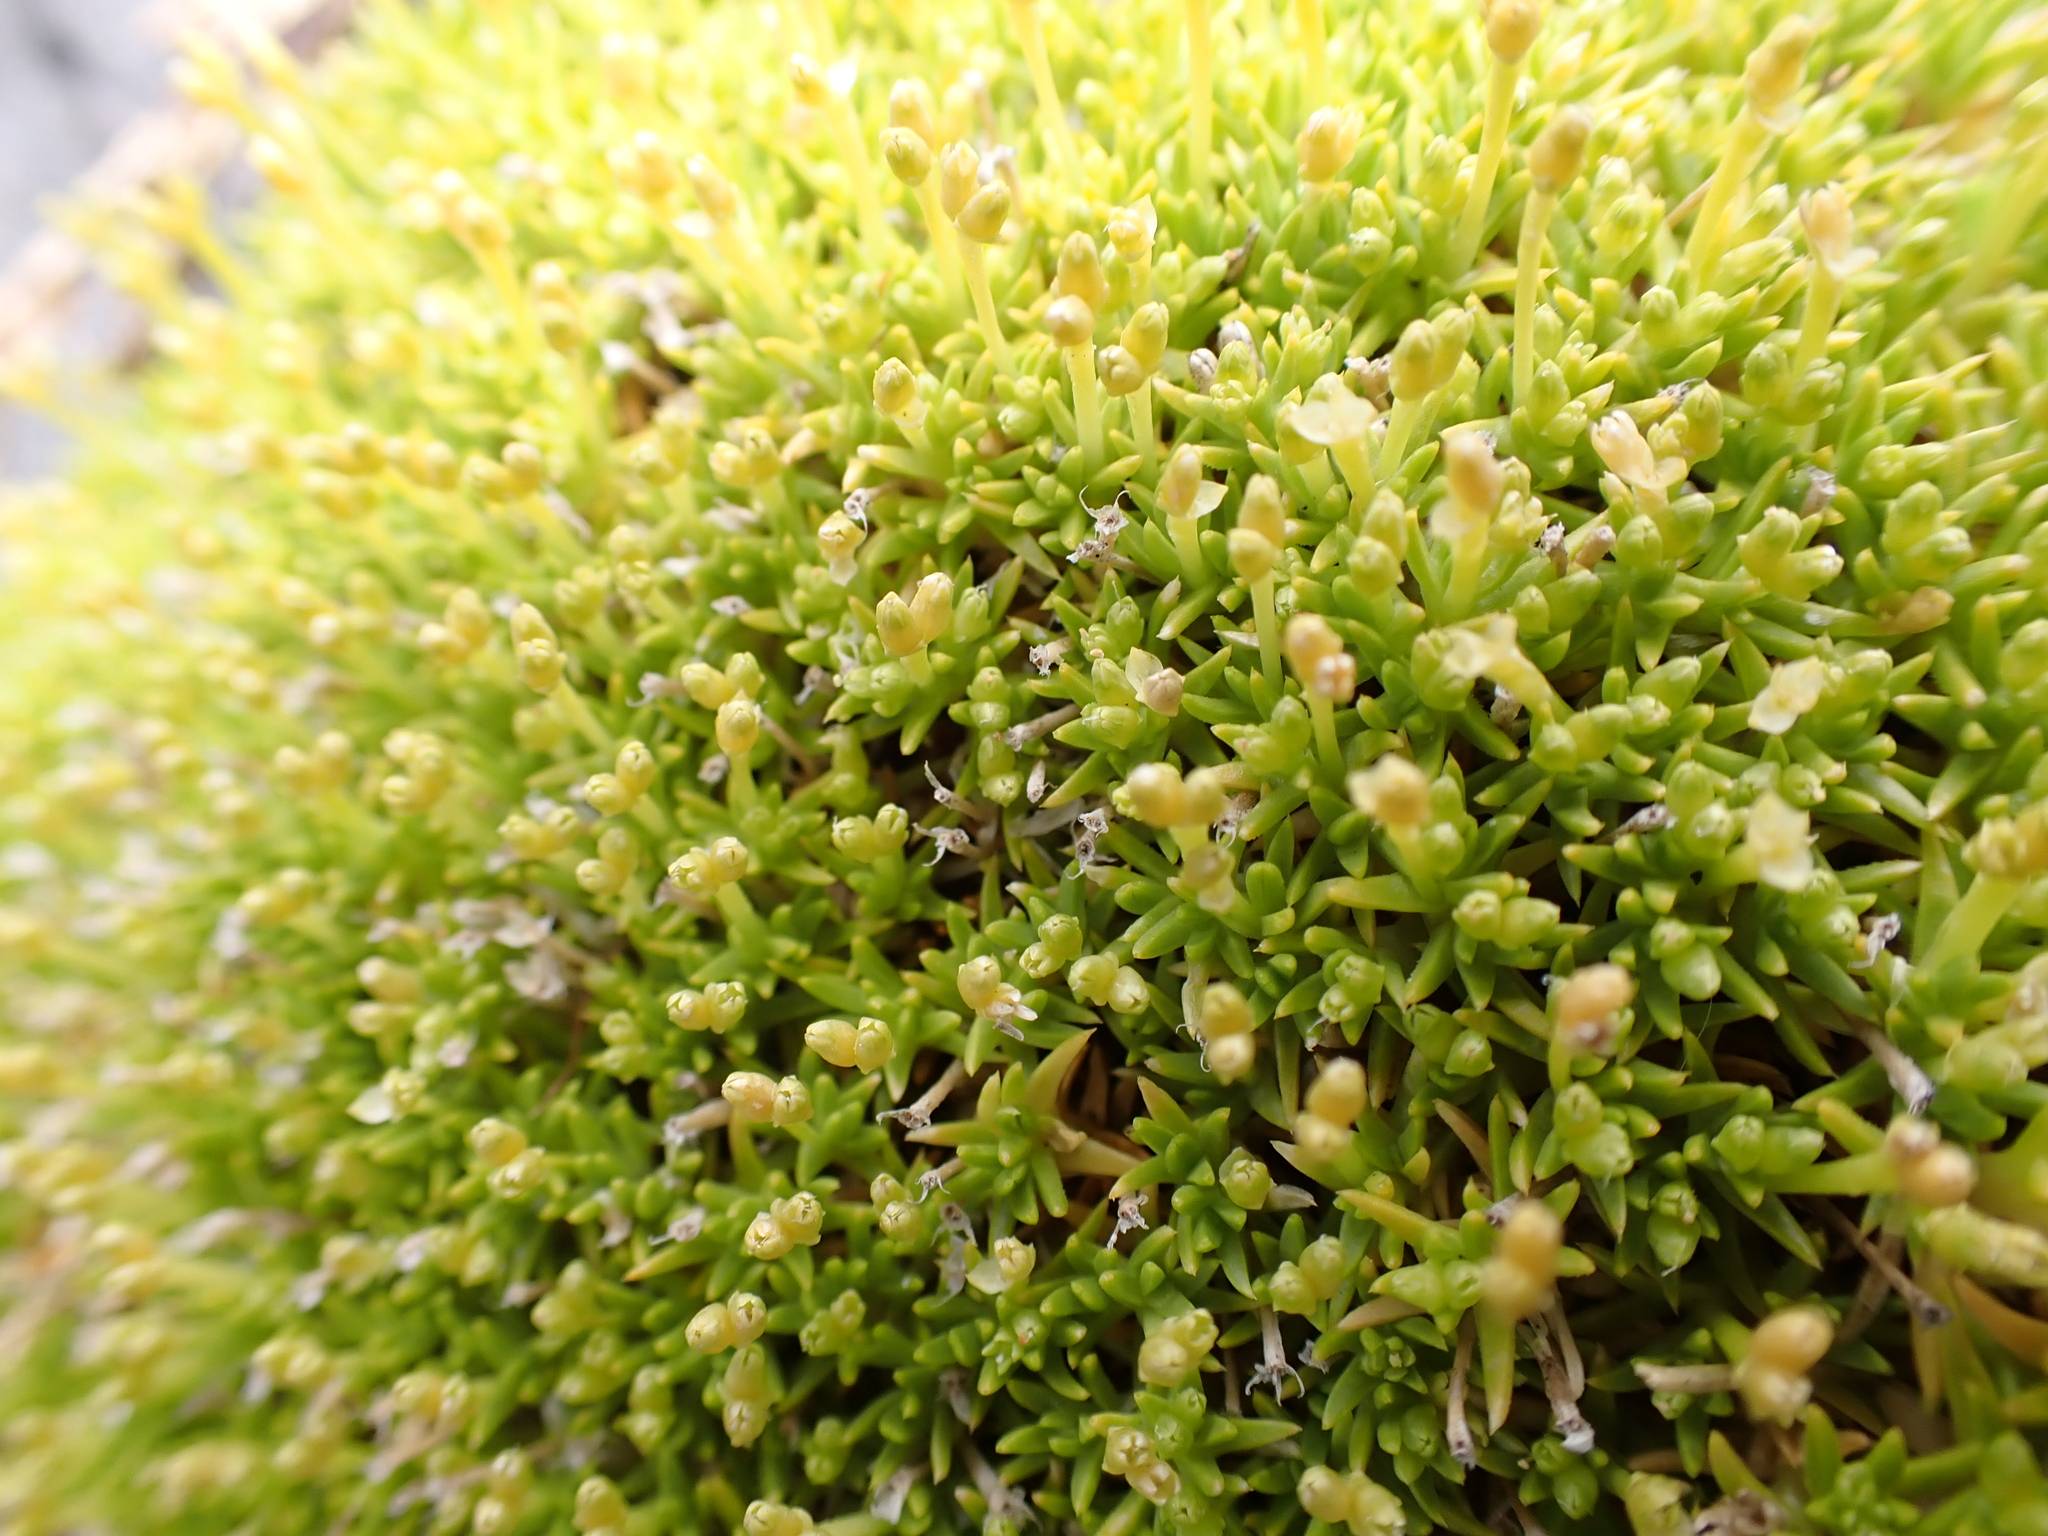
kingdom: Plantae
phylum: Tracheophyta
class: Magnoliopsida
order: Caryophyllales
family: Caryophyllaceae
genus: Scleranthus
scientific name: Scleranthus biflorus
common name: Two-flower knawel
